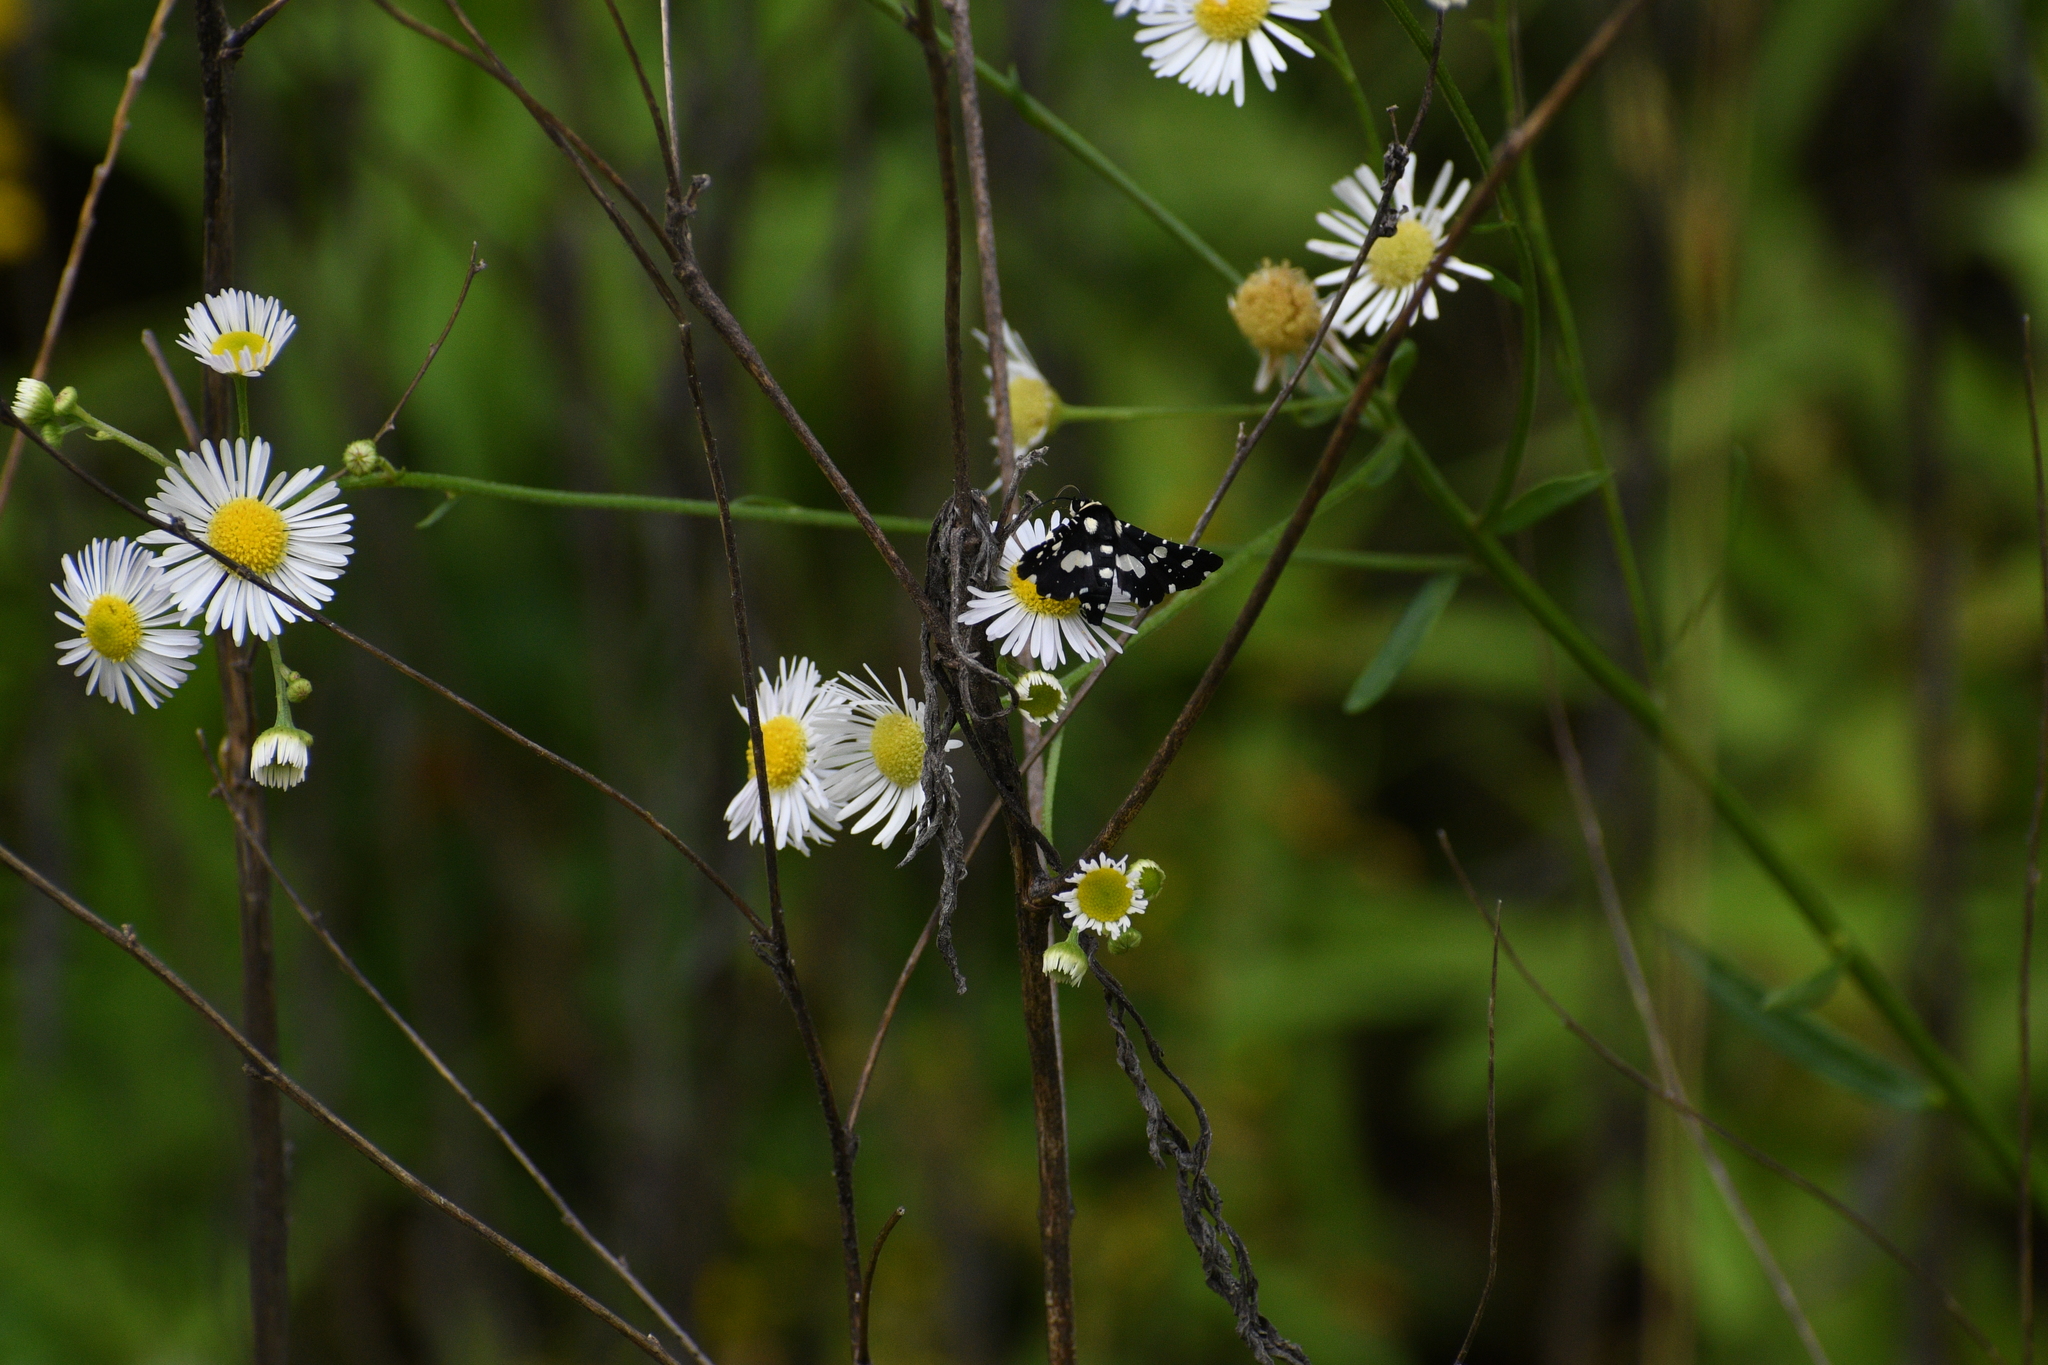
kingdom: Animalia
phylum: Arthropoda
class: Insecta
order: Lepidoptera
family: Thyrididae
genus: Pseudothyris
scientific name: Pseudothyris sepulchralis
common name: Mournful thyris moth
